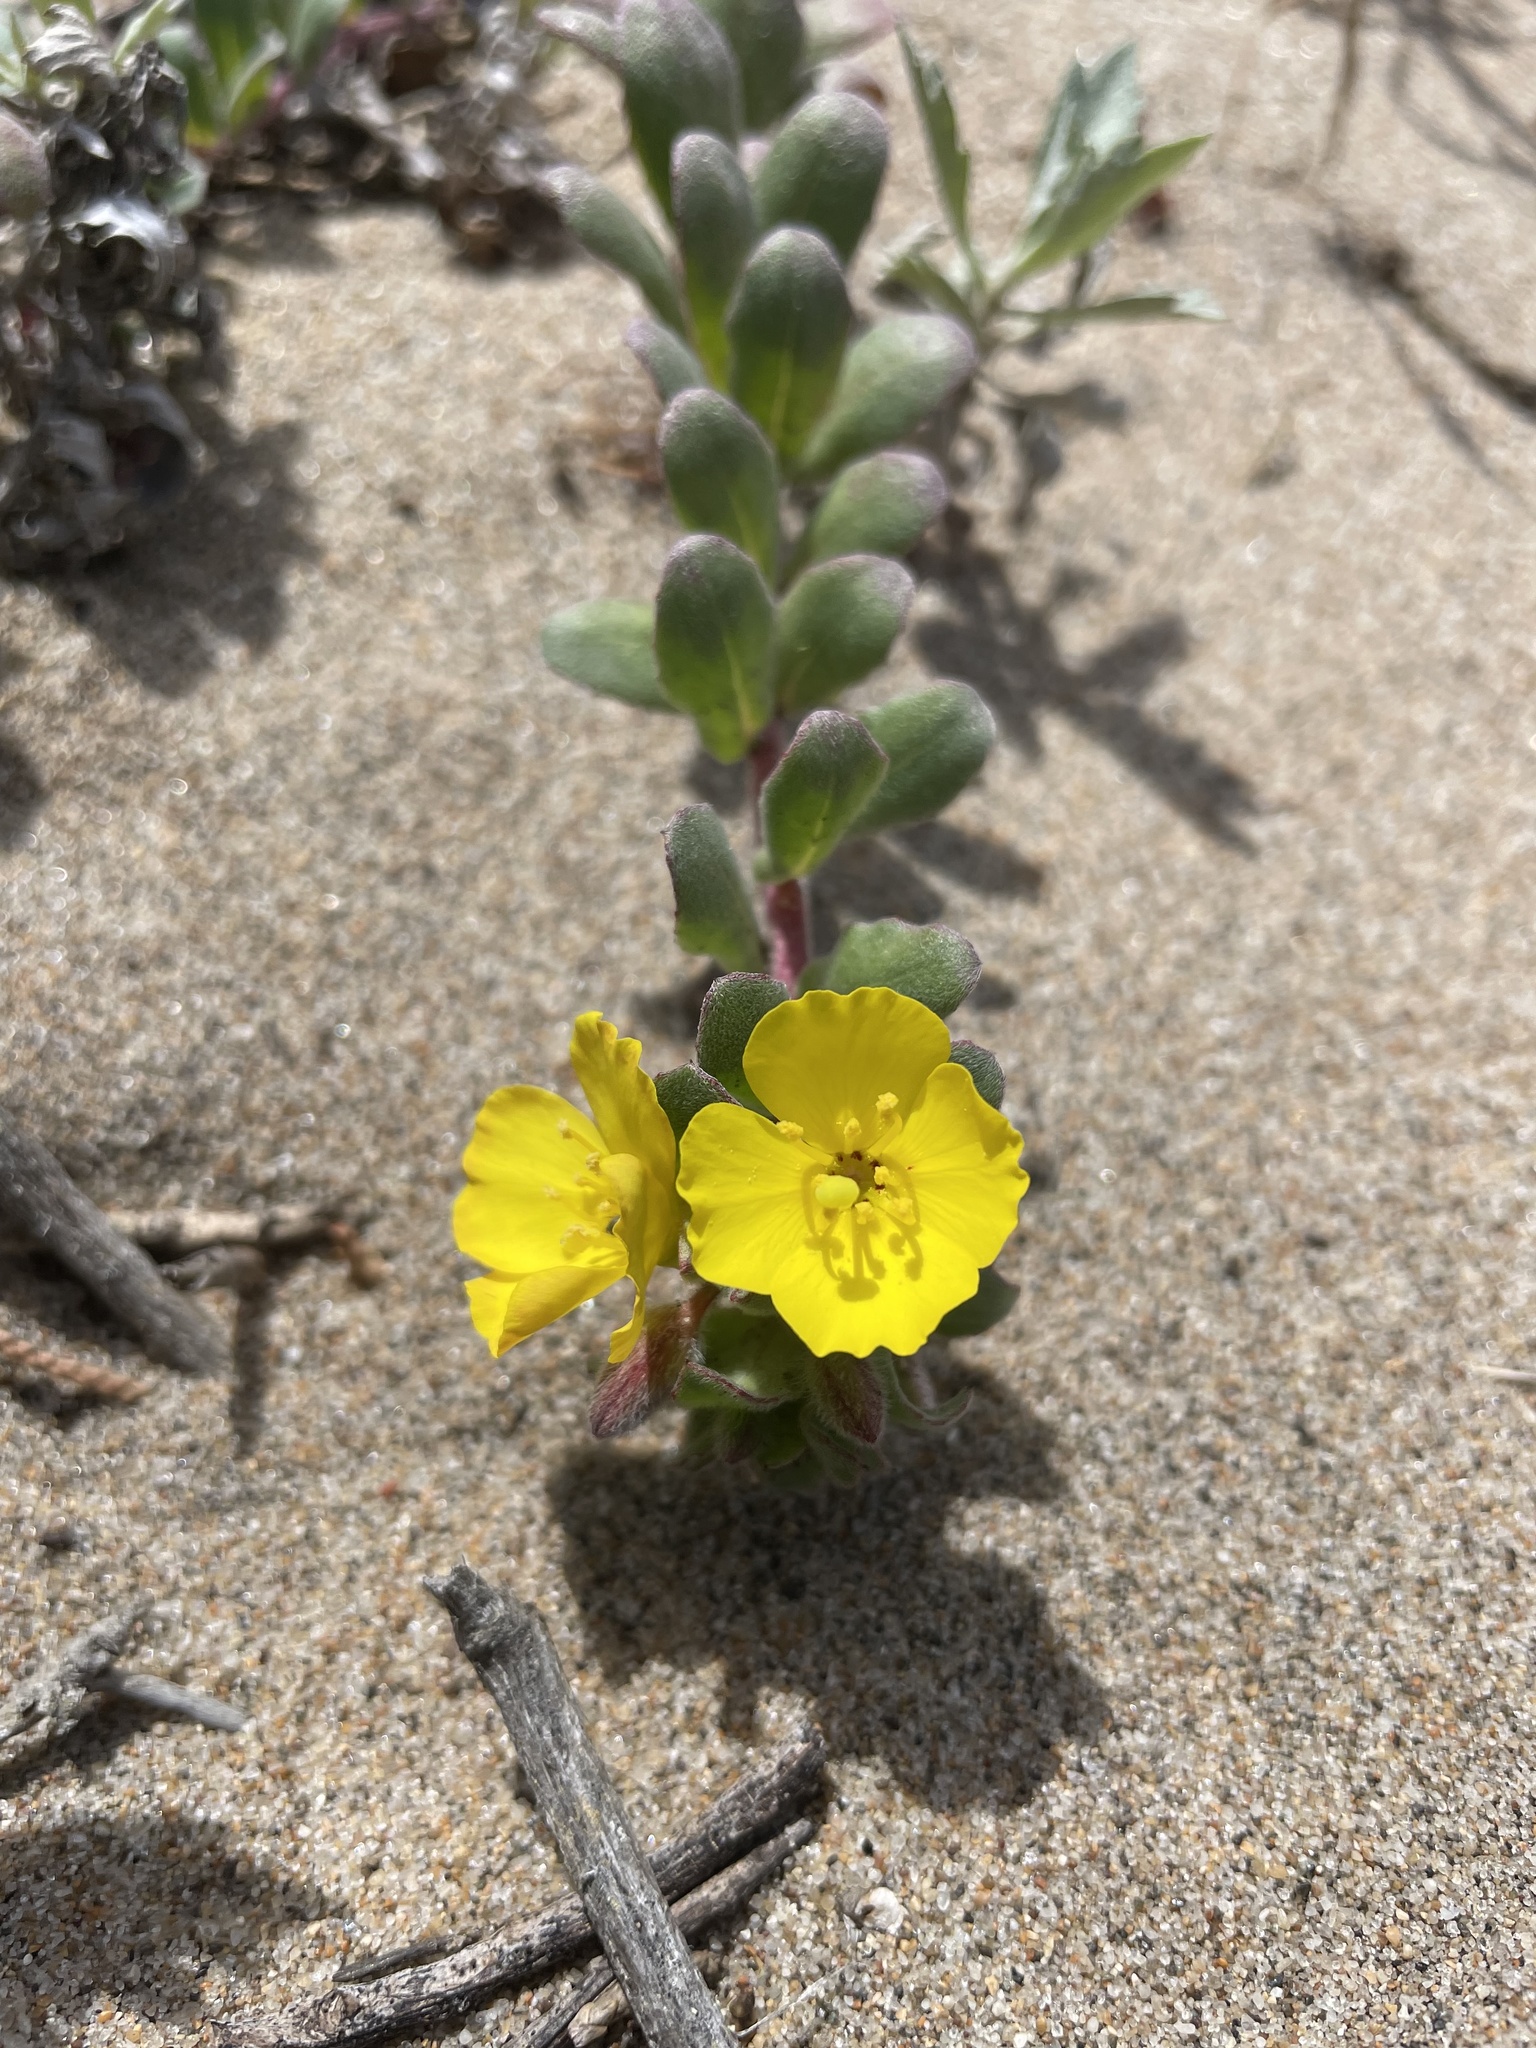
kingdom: Plantae
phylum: Tracheophyta
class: Magnoliopsida
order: Myrtales
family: Onagraceae
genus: Camissoniopsis
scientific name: Camissoniopsis cheiranthifolia
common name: Beach suncup
